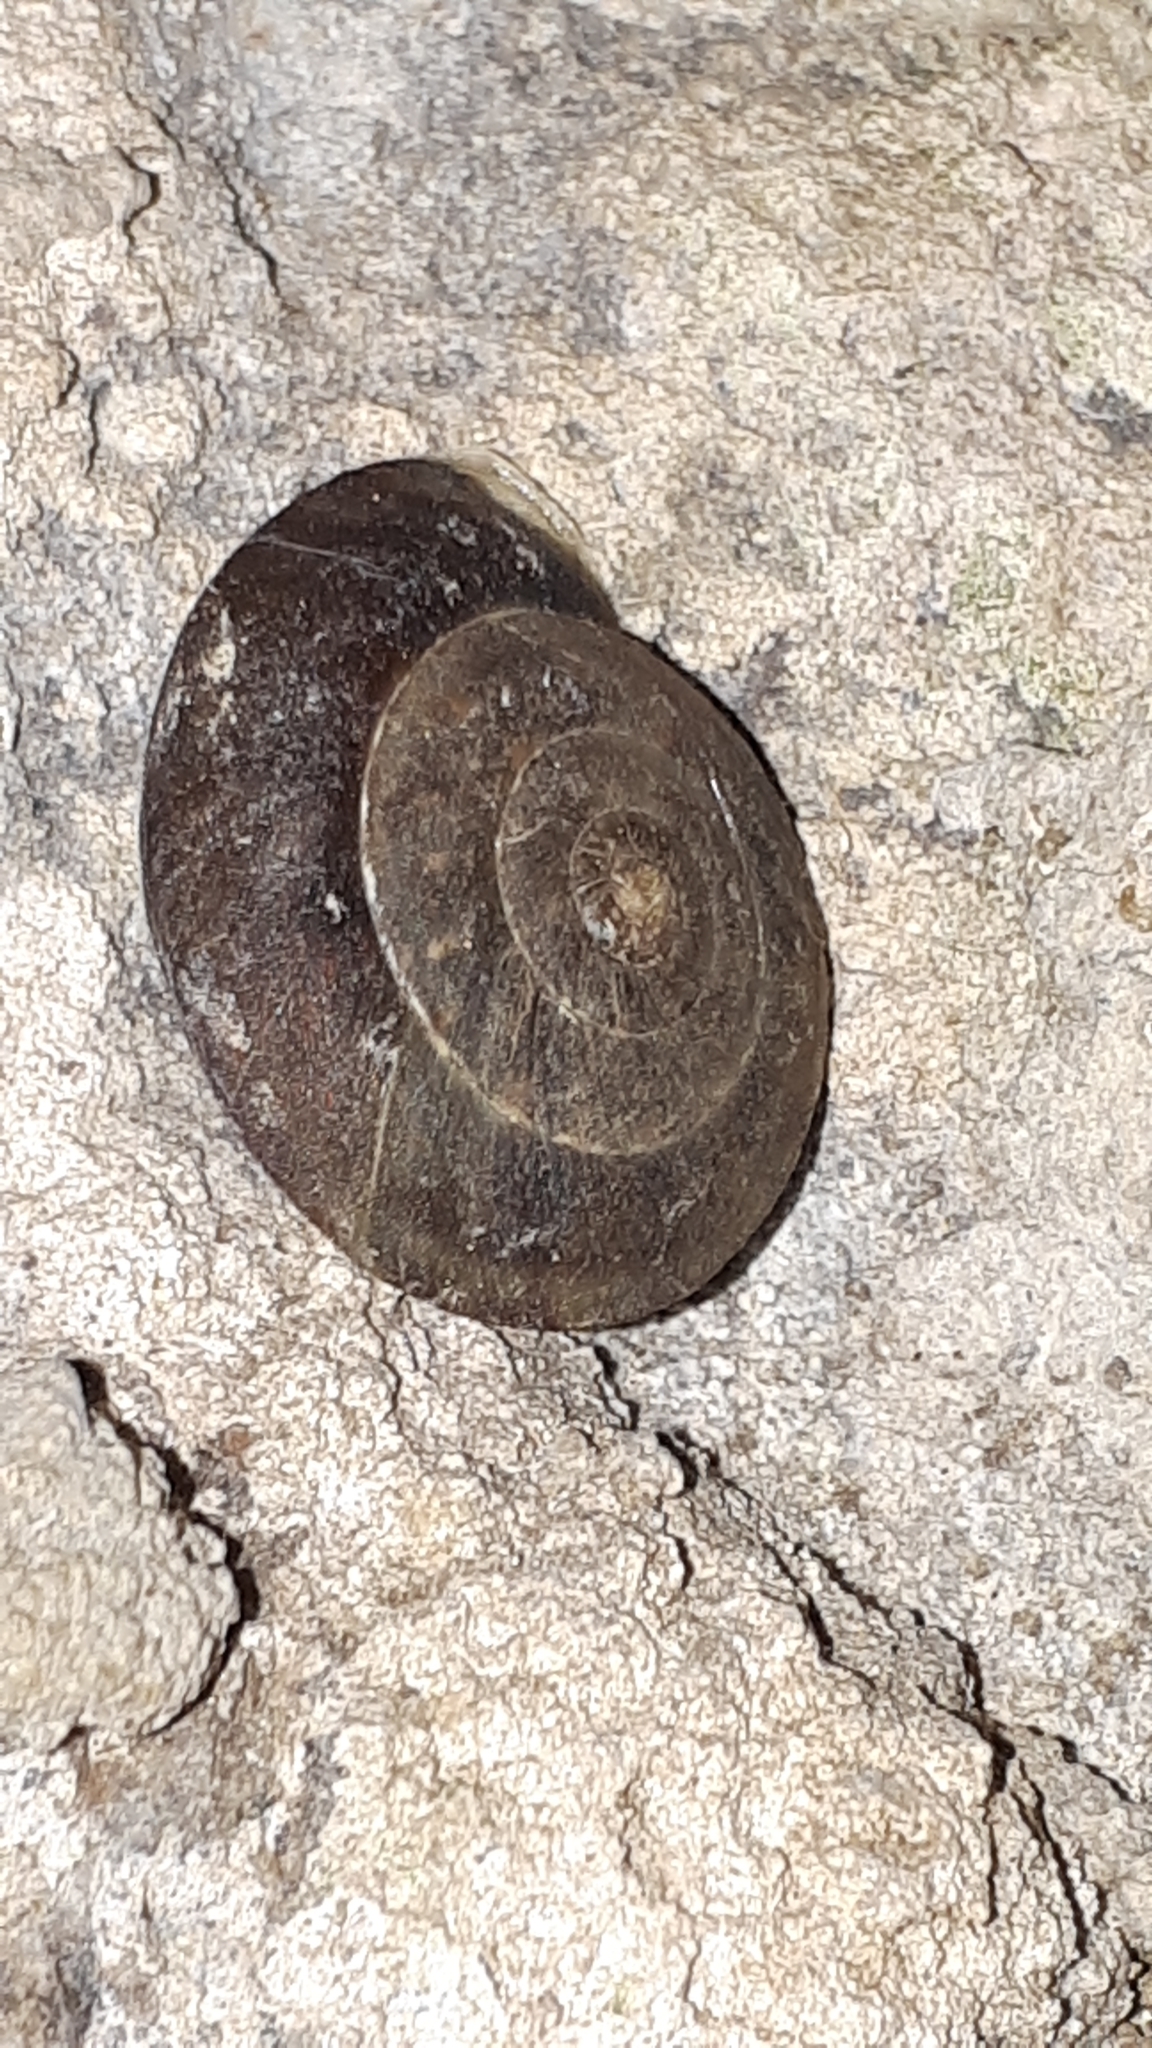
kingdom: Animalia
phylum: Mollusca
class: Gastropoda
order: Stylommatophora
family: Helicidae
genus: Helicigona
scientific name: Helicigona lapicida
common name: Lapidary snail
